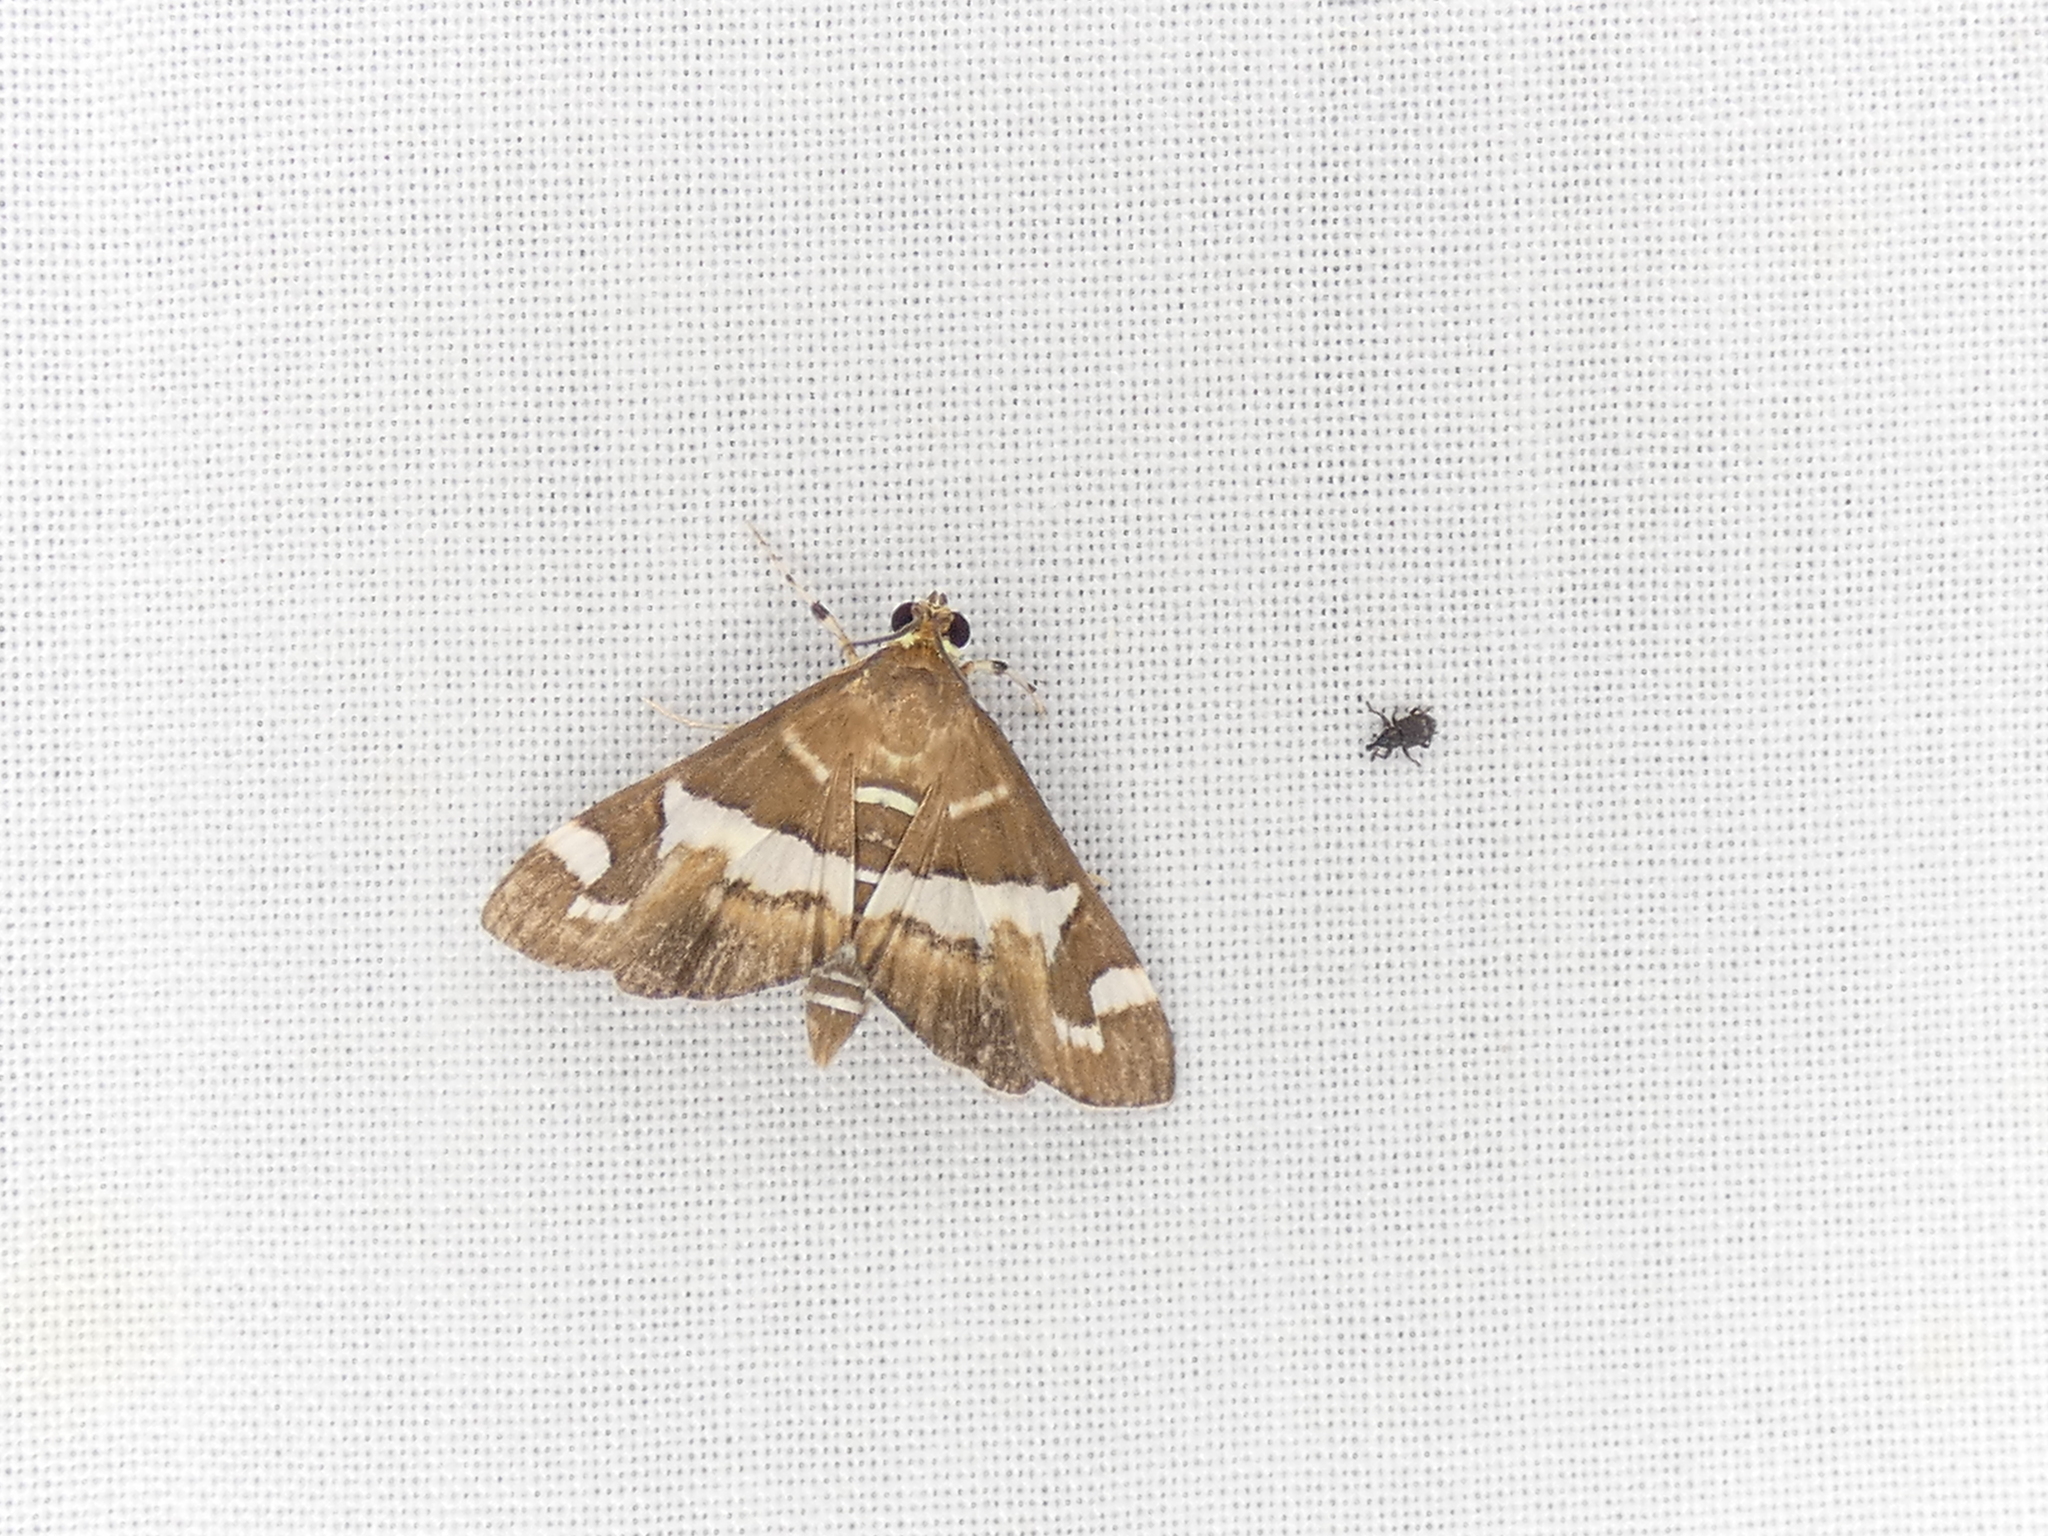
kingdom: Animalia
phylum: Arthropoda
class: Insecta
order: Lepidoptera
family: Crambidae
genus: Spoladea
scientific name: Spoladea recurvalis
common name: Beet webworm moth
